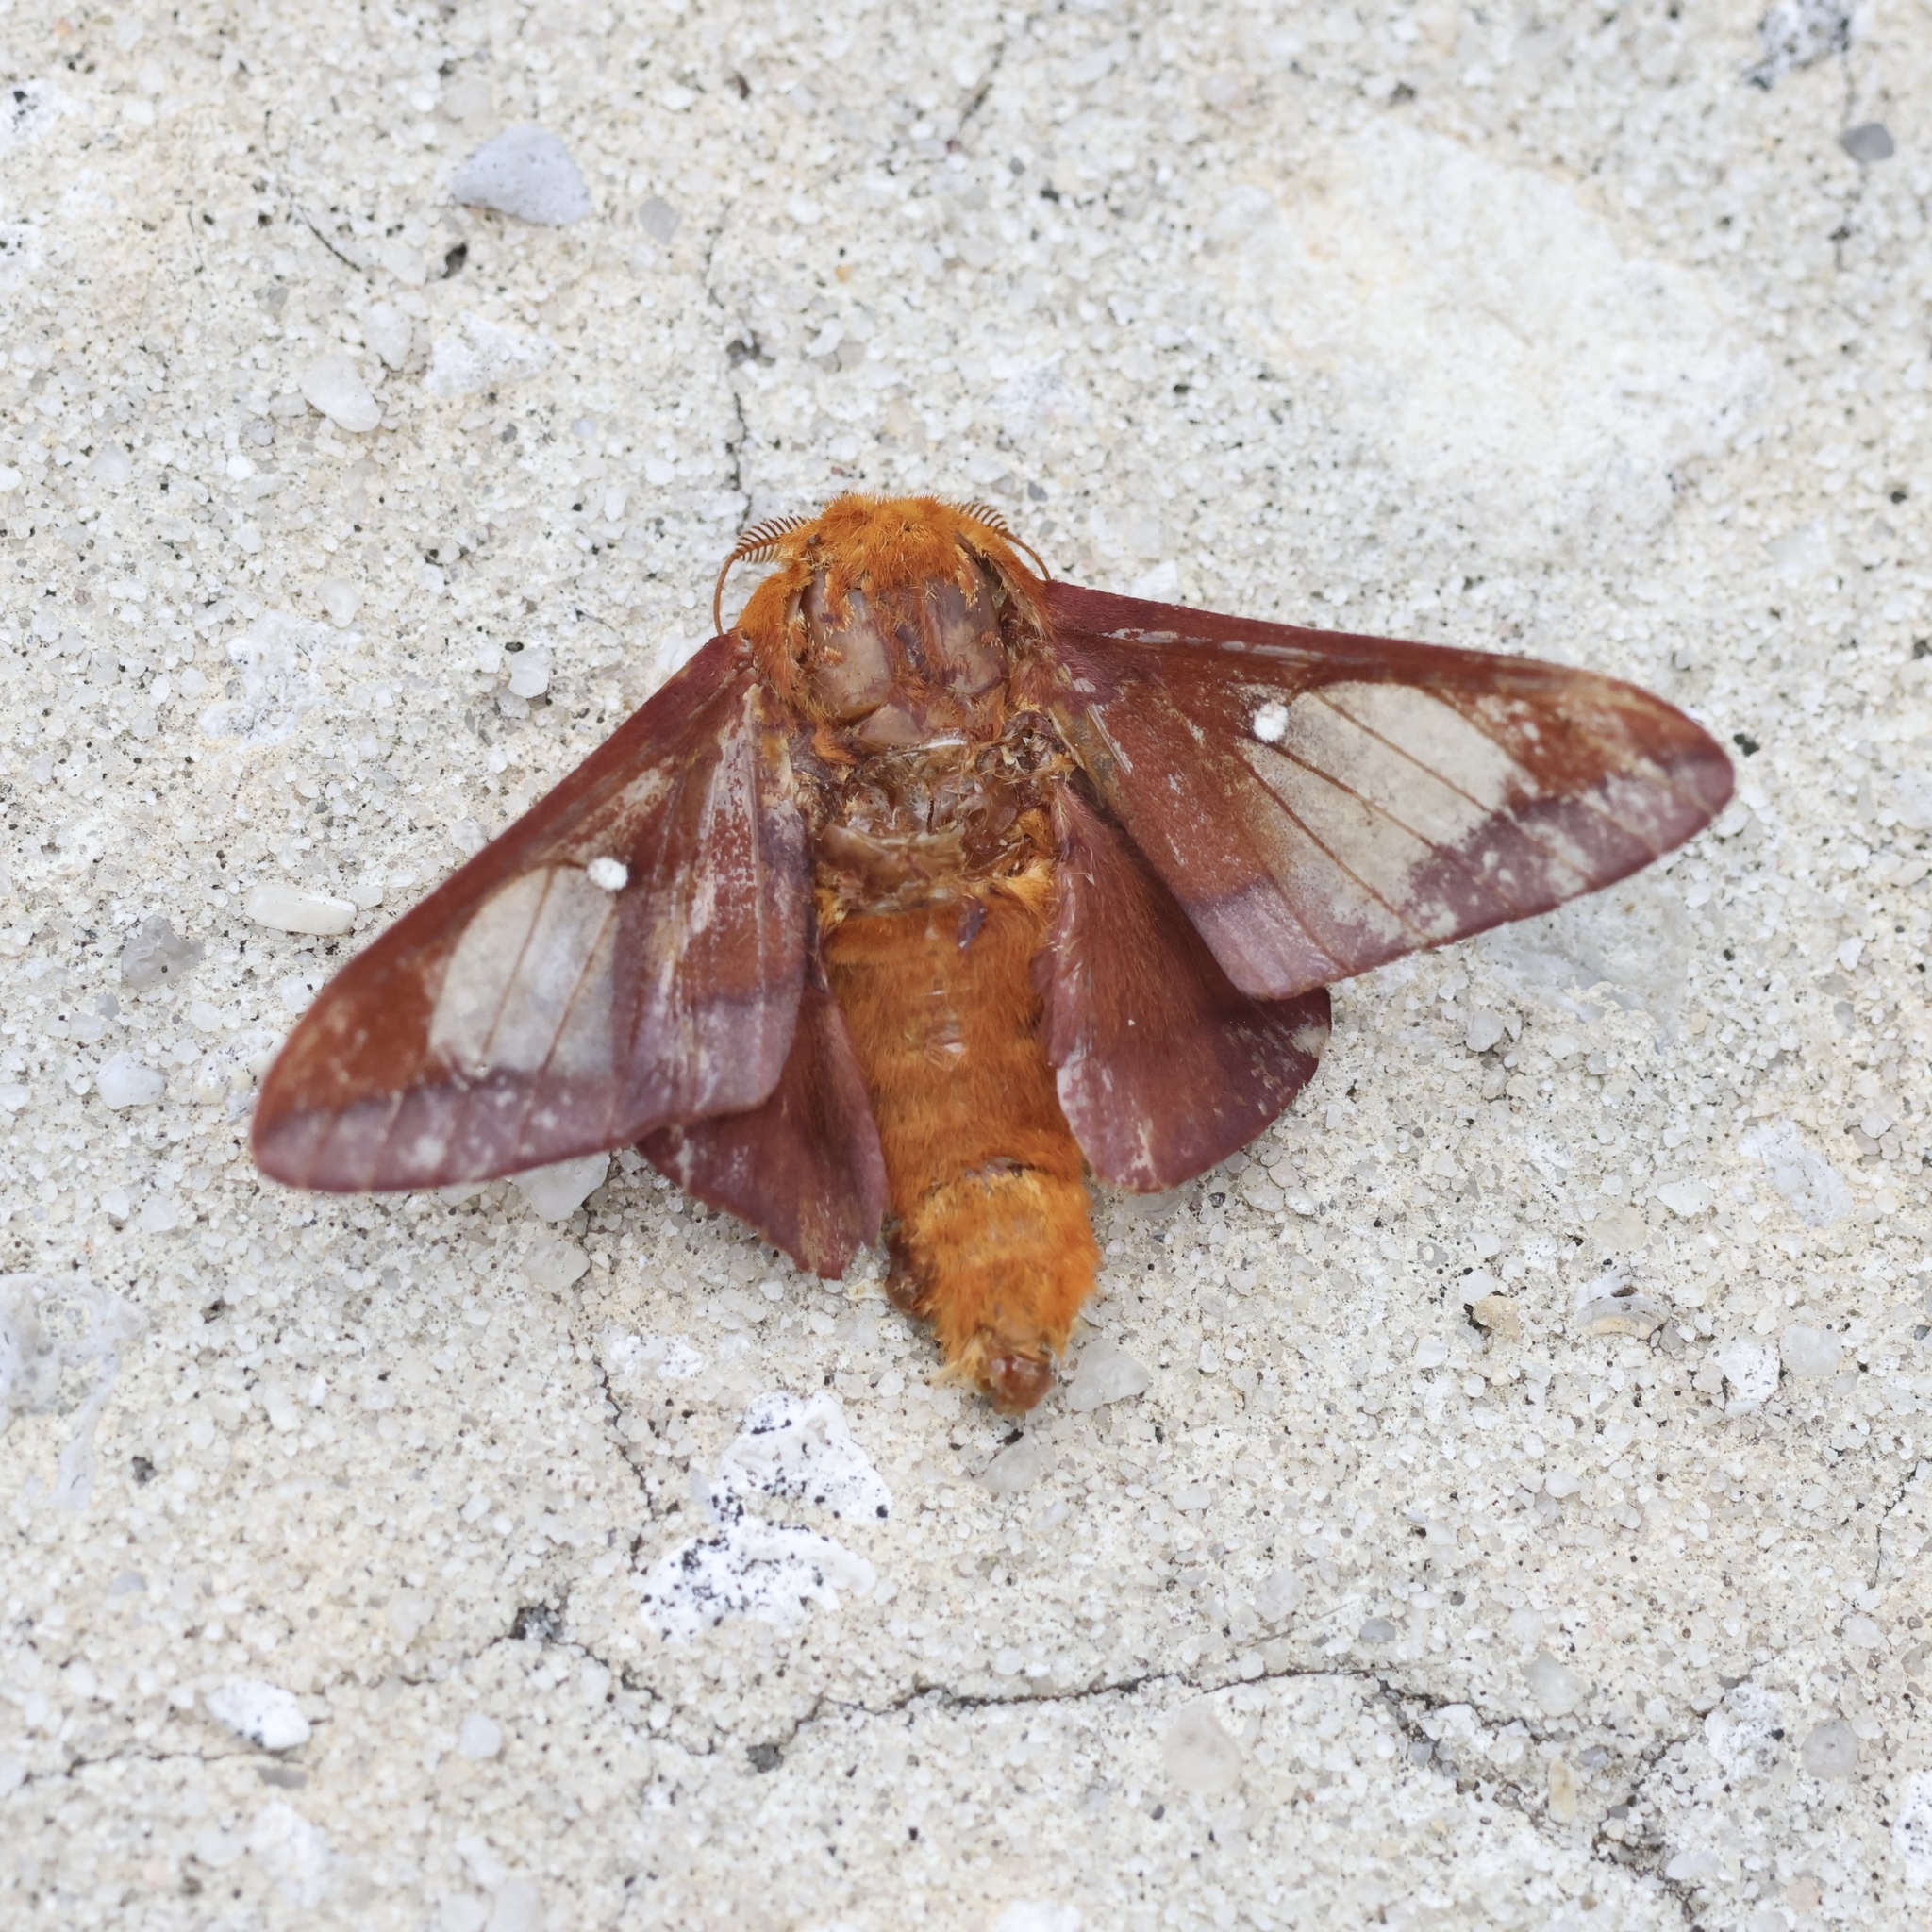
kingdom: Animalia
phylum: Arthropoda
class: Insecta
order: Lepidoptera
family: Saturniidae
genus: Anisota
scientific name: Anisota virginiensis
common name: Pink striped oakworm moth
